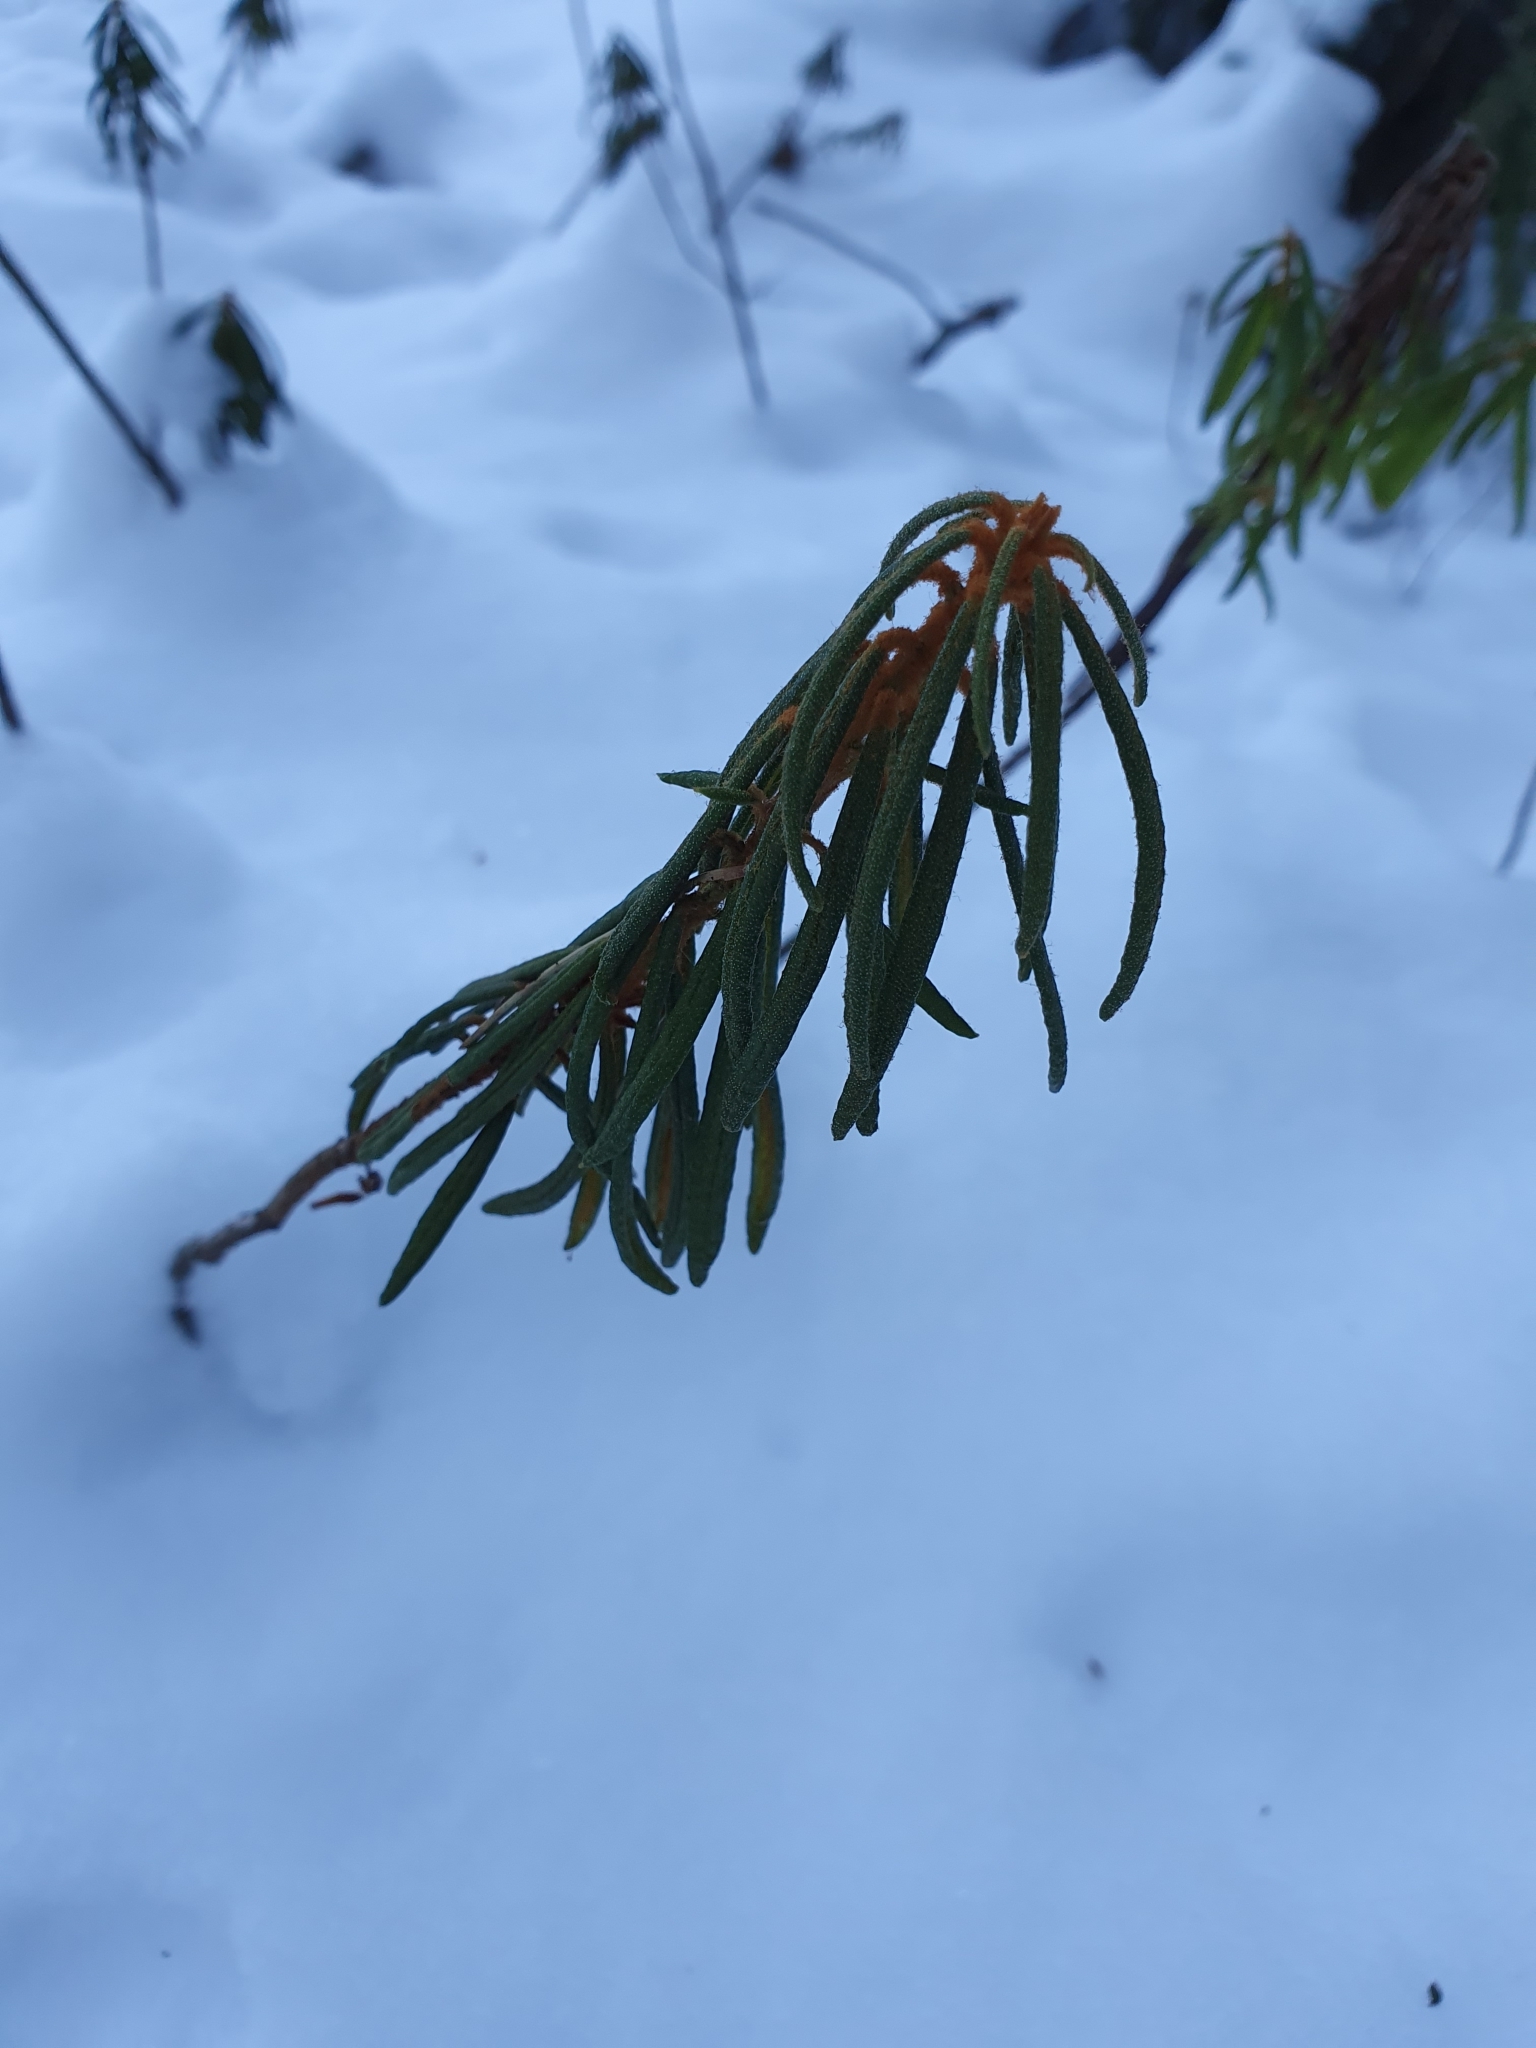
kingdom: Plantae
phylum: Tracheophyta
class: Magnoliopsida
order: Ericales
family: Ericaceae
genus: Rhododendron
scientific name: Rhododendron tomentosum
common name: Marsh labrador tea
